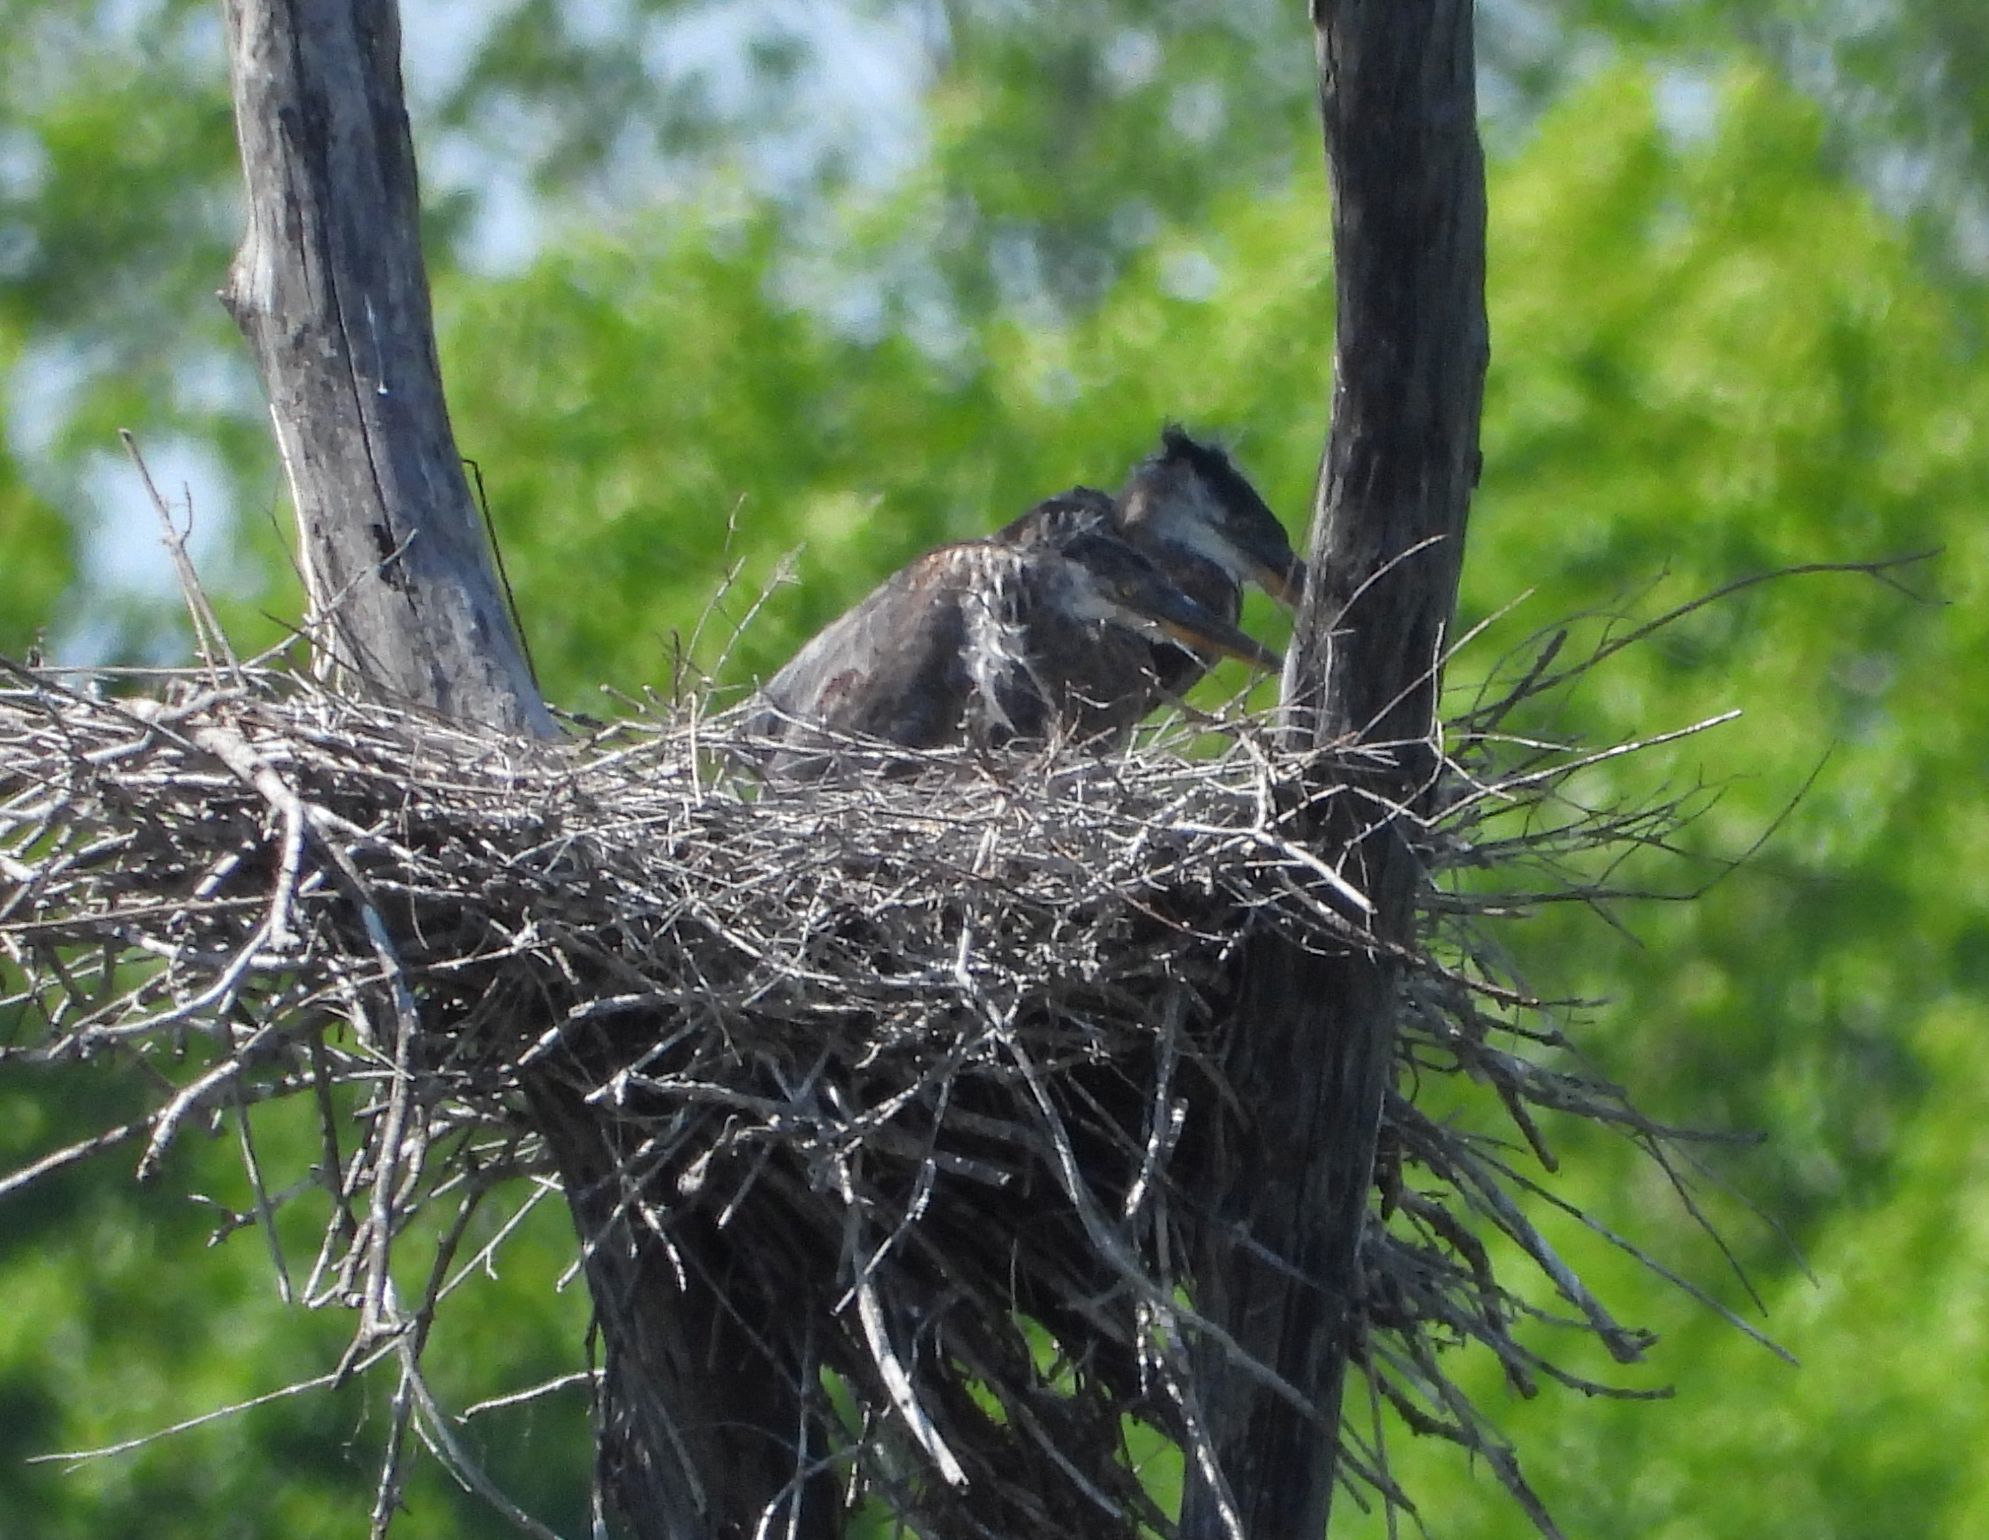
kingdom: Animalia
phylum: Chordata
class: Aves
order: Pelecaniformes
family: Ardeidae
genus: Ardea
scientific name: Ardea herodias
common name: Great blue heron
